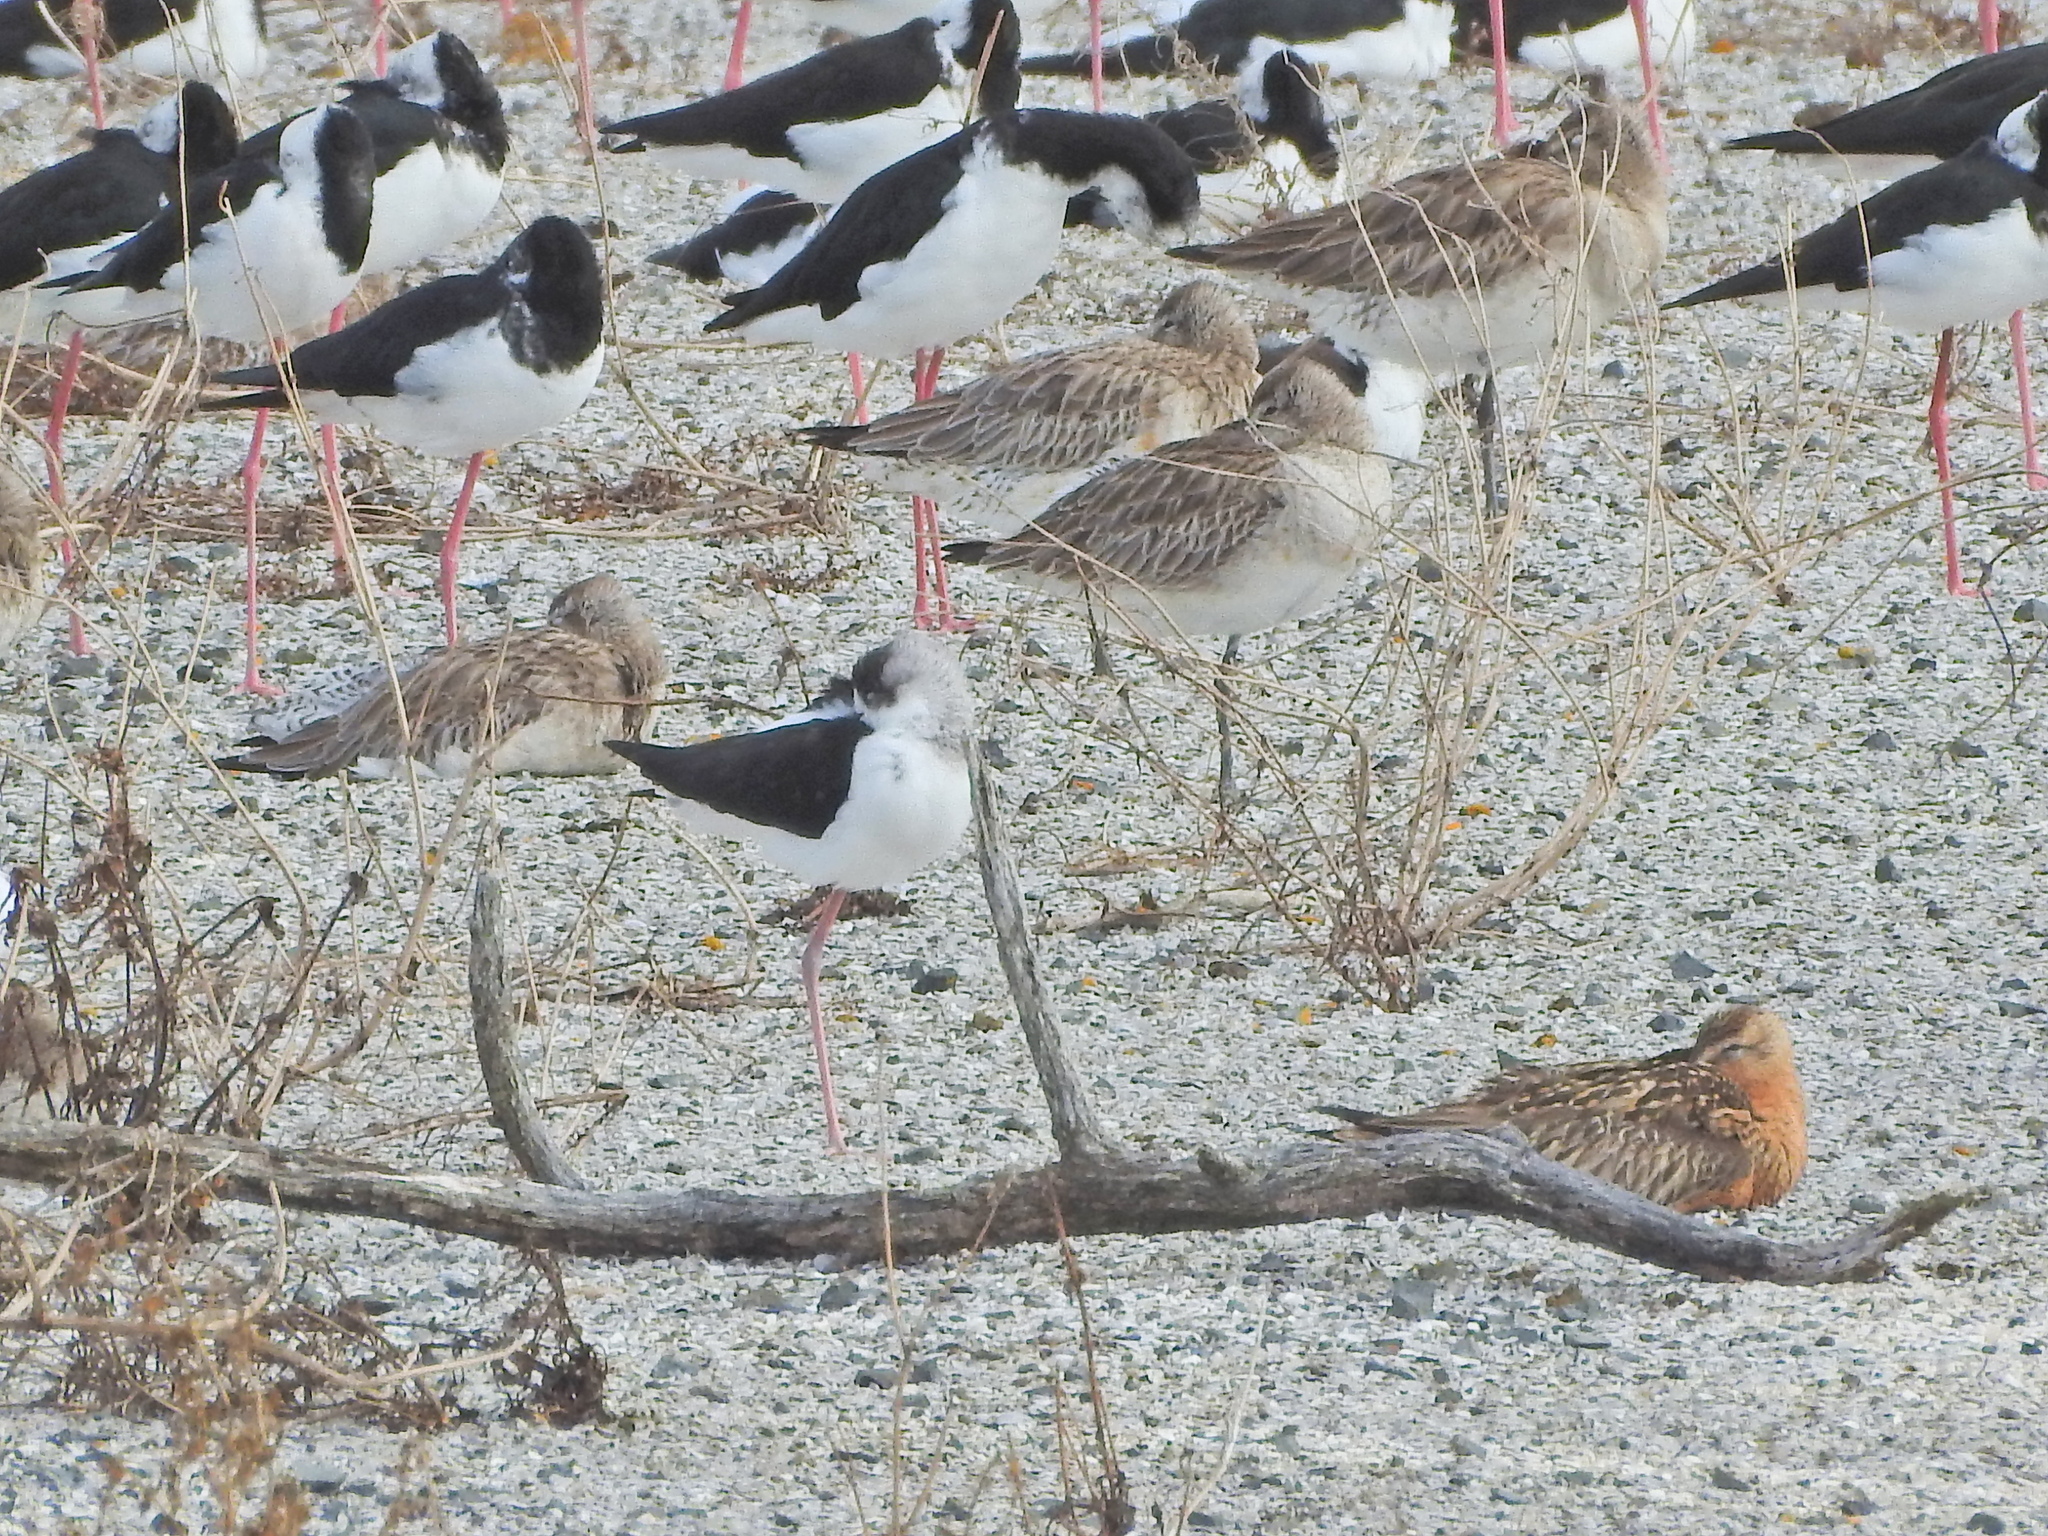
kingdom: Animalia
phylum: Chordata
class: Aves
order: Charadriiformes
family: Scolopacidae
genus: Limosa
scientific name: Limosa lapponica
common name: Bar-tailed godwit
